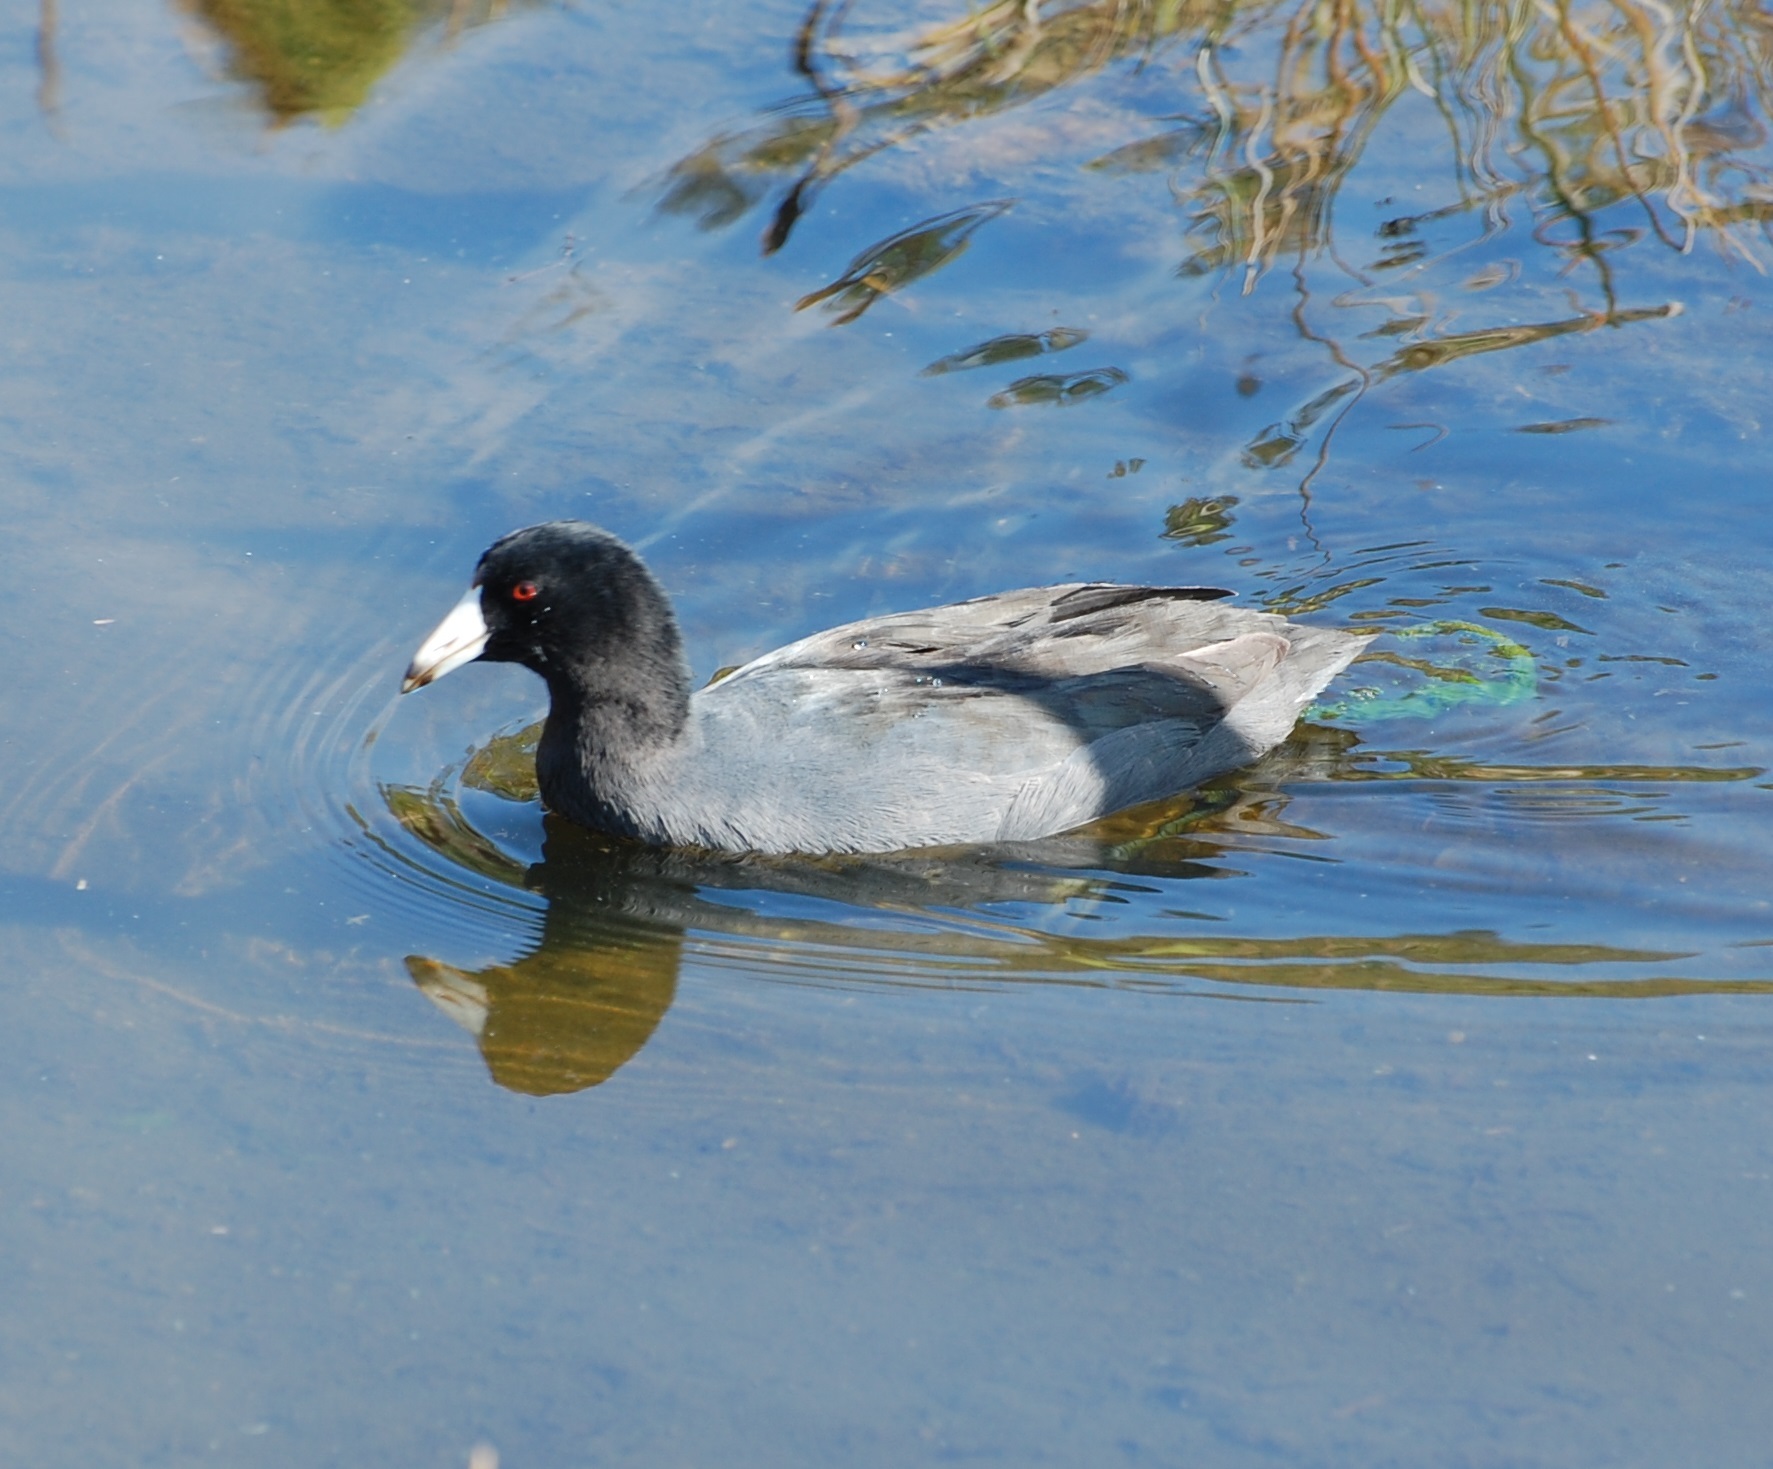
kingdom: Animalia
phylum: Chordata
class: Aves
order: Gruiformes
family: Rallidae
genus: Fulica
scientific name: Fulica americana
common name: American coot
